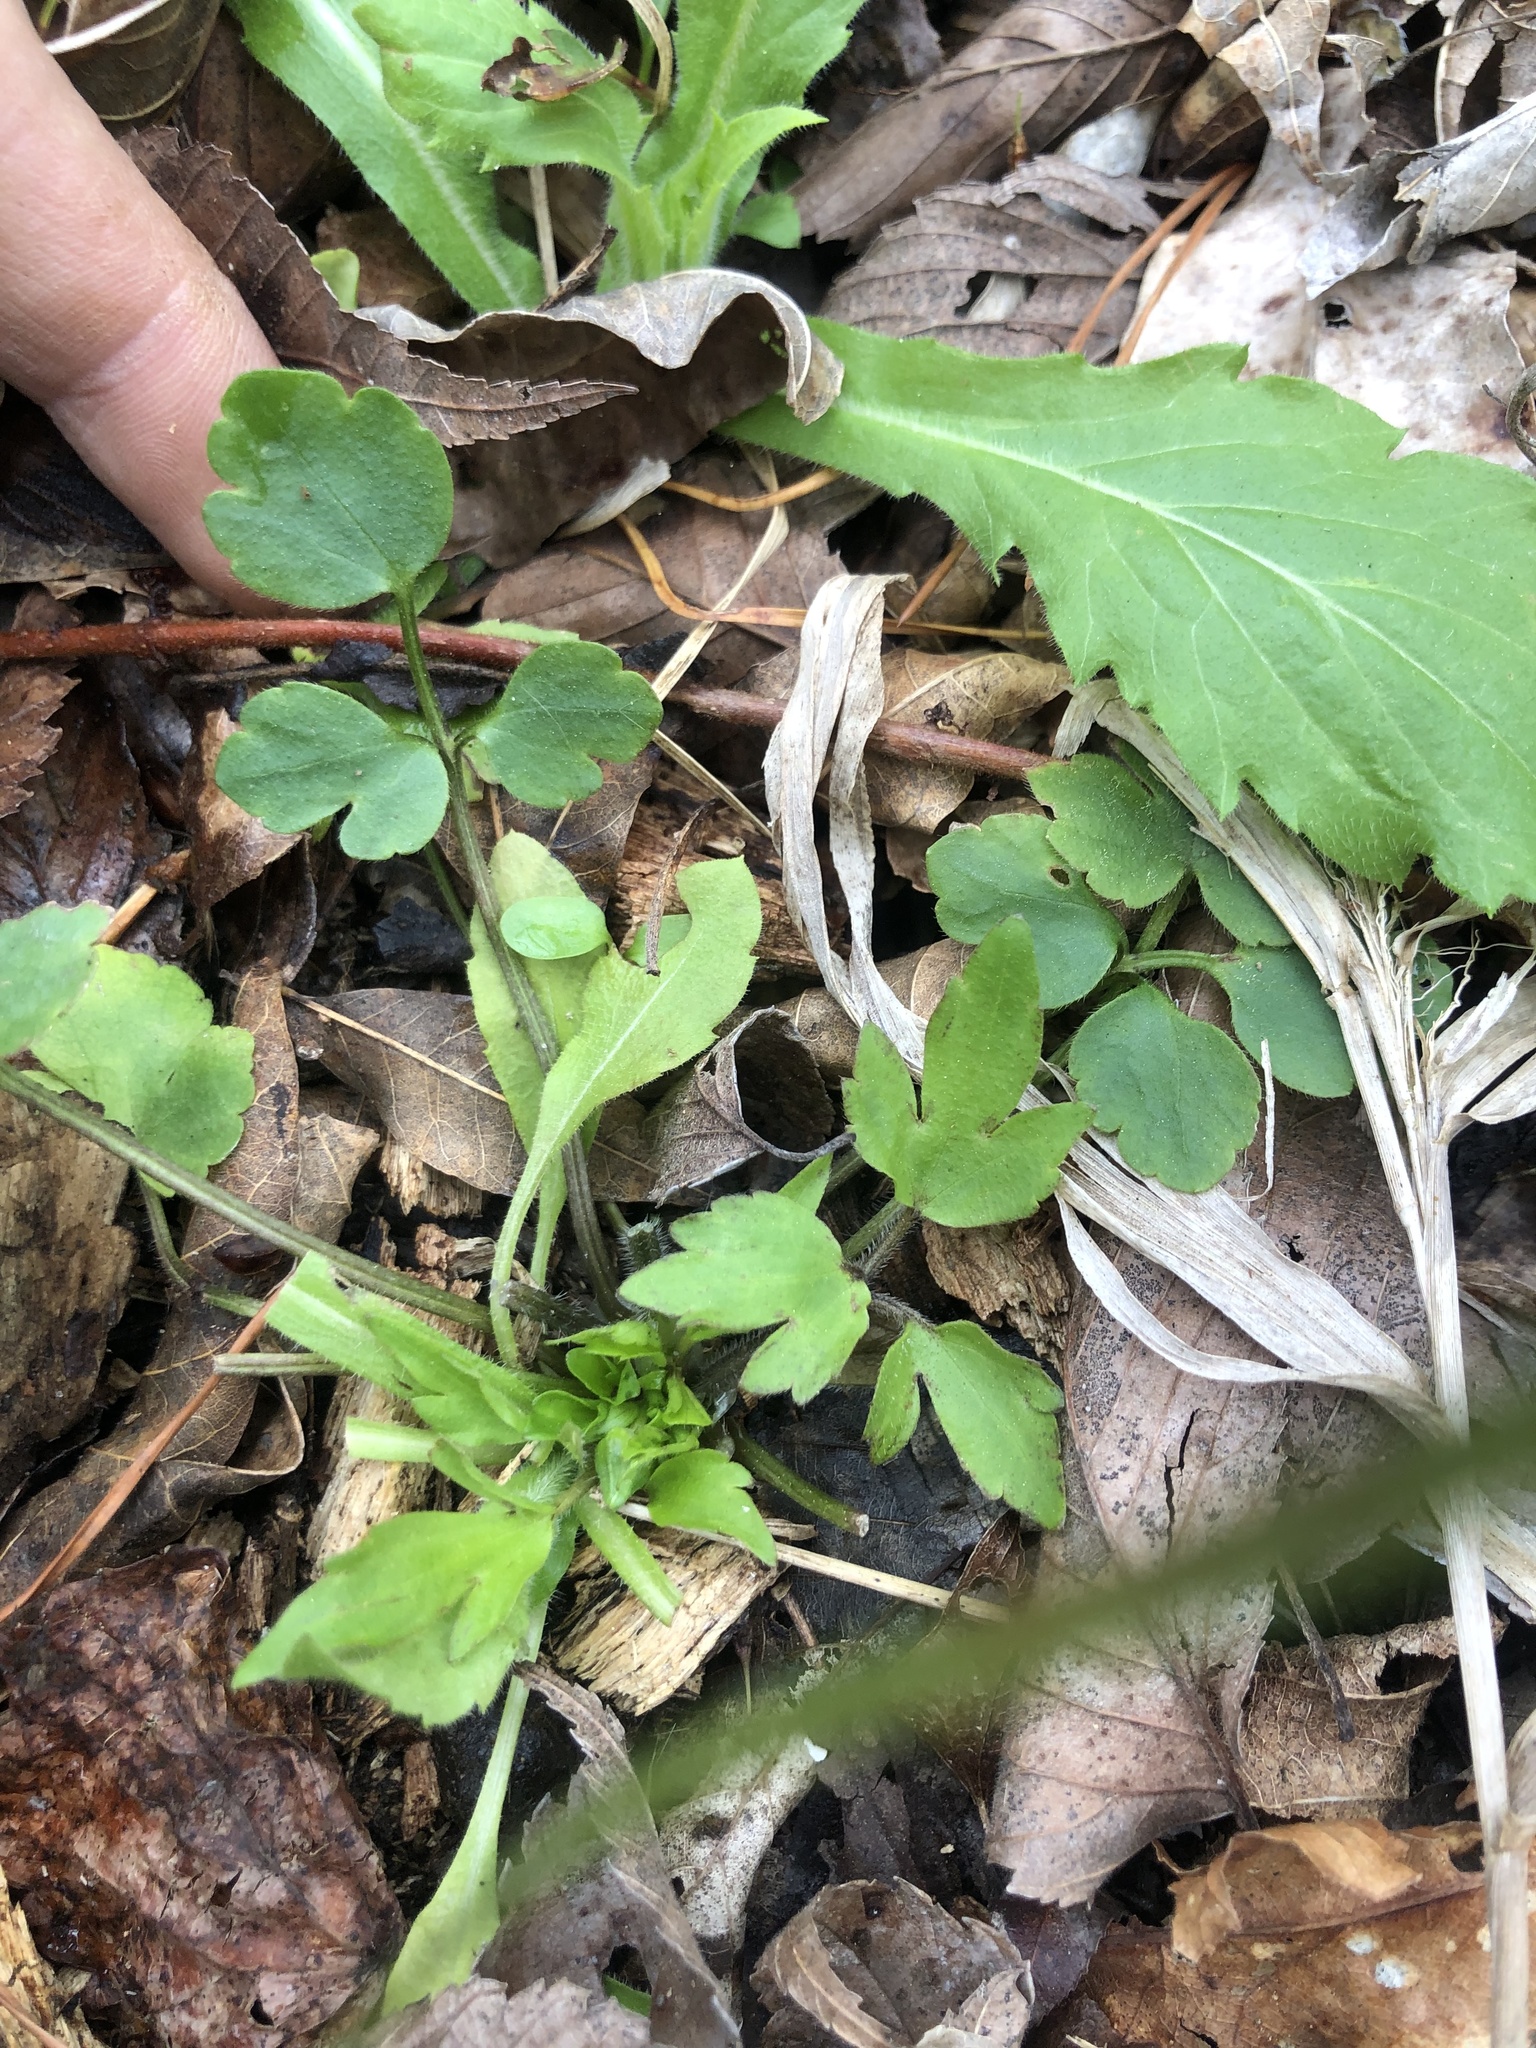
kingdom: Plantae
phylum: Tracheophyta
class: Magnoliopsida
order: Ranunculales
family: Ranunculaceae
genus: Ranunculus
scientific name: Ranunculus fascicularis
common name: Early buttercup
